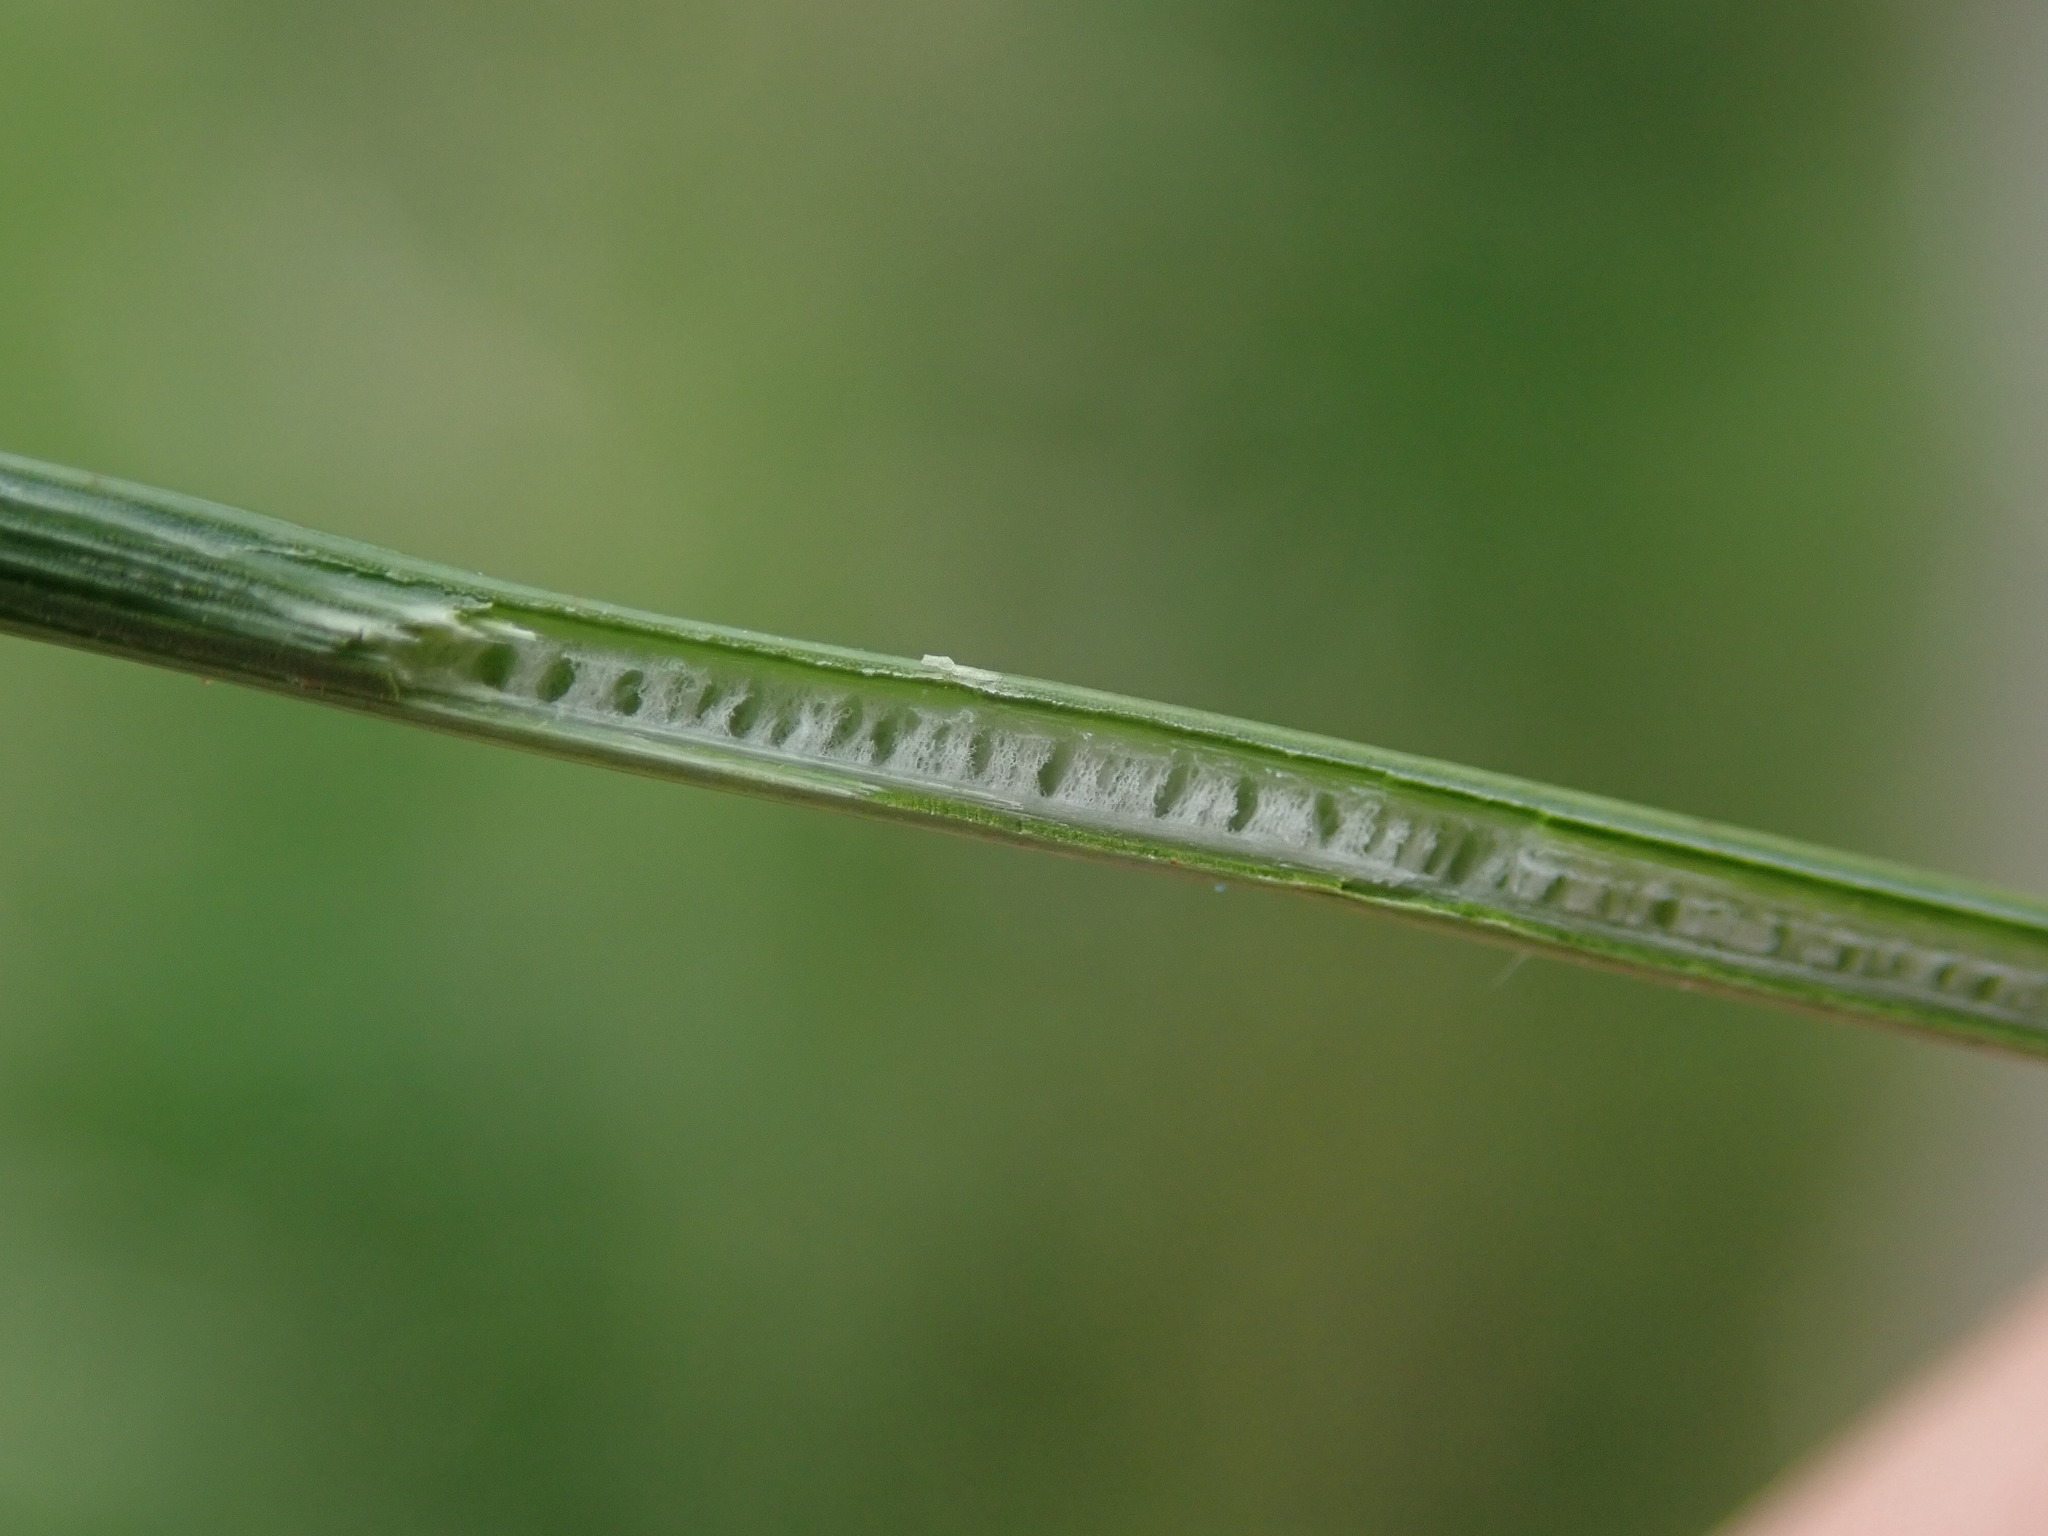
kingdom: Plantae
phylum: Tracheophyta
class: Liliopsida
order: Poales
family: Juncaceae
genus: Juncus
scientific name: Juncus inflexus
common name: Hard rush
